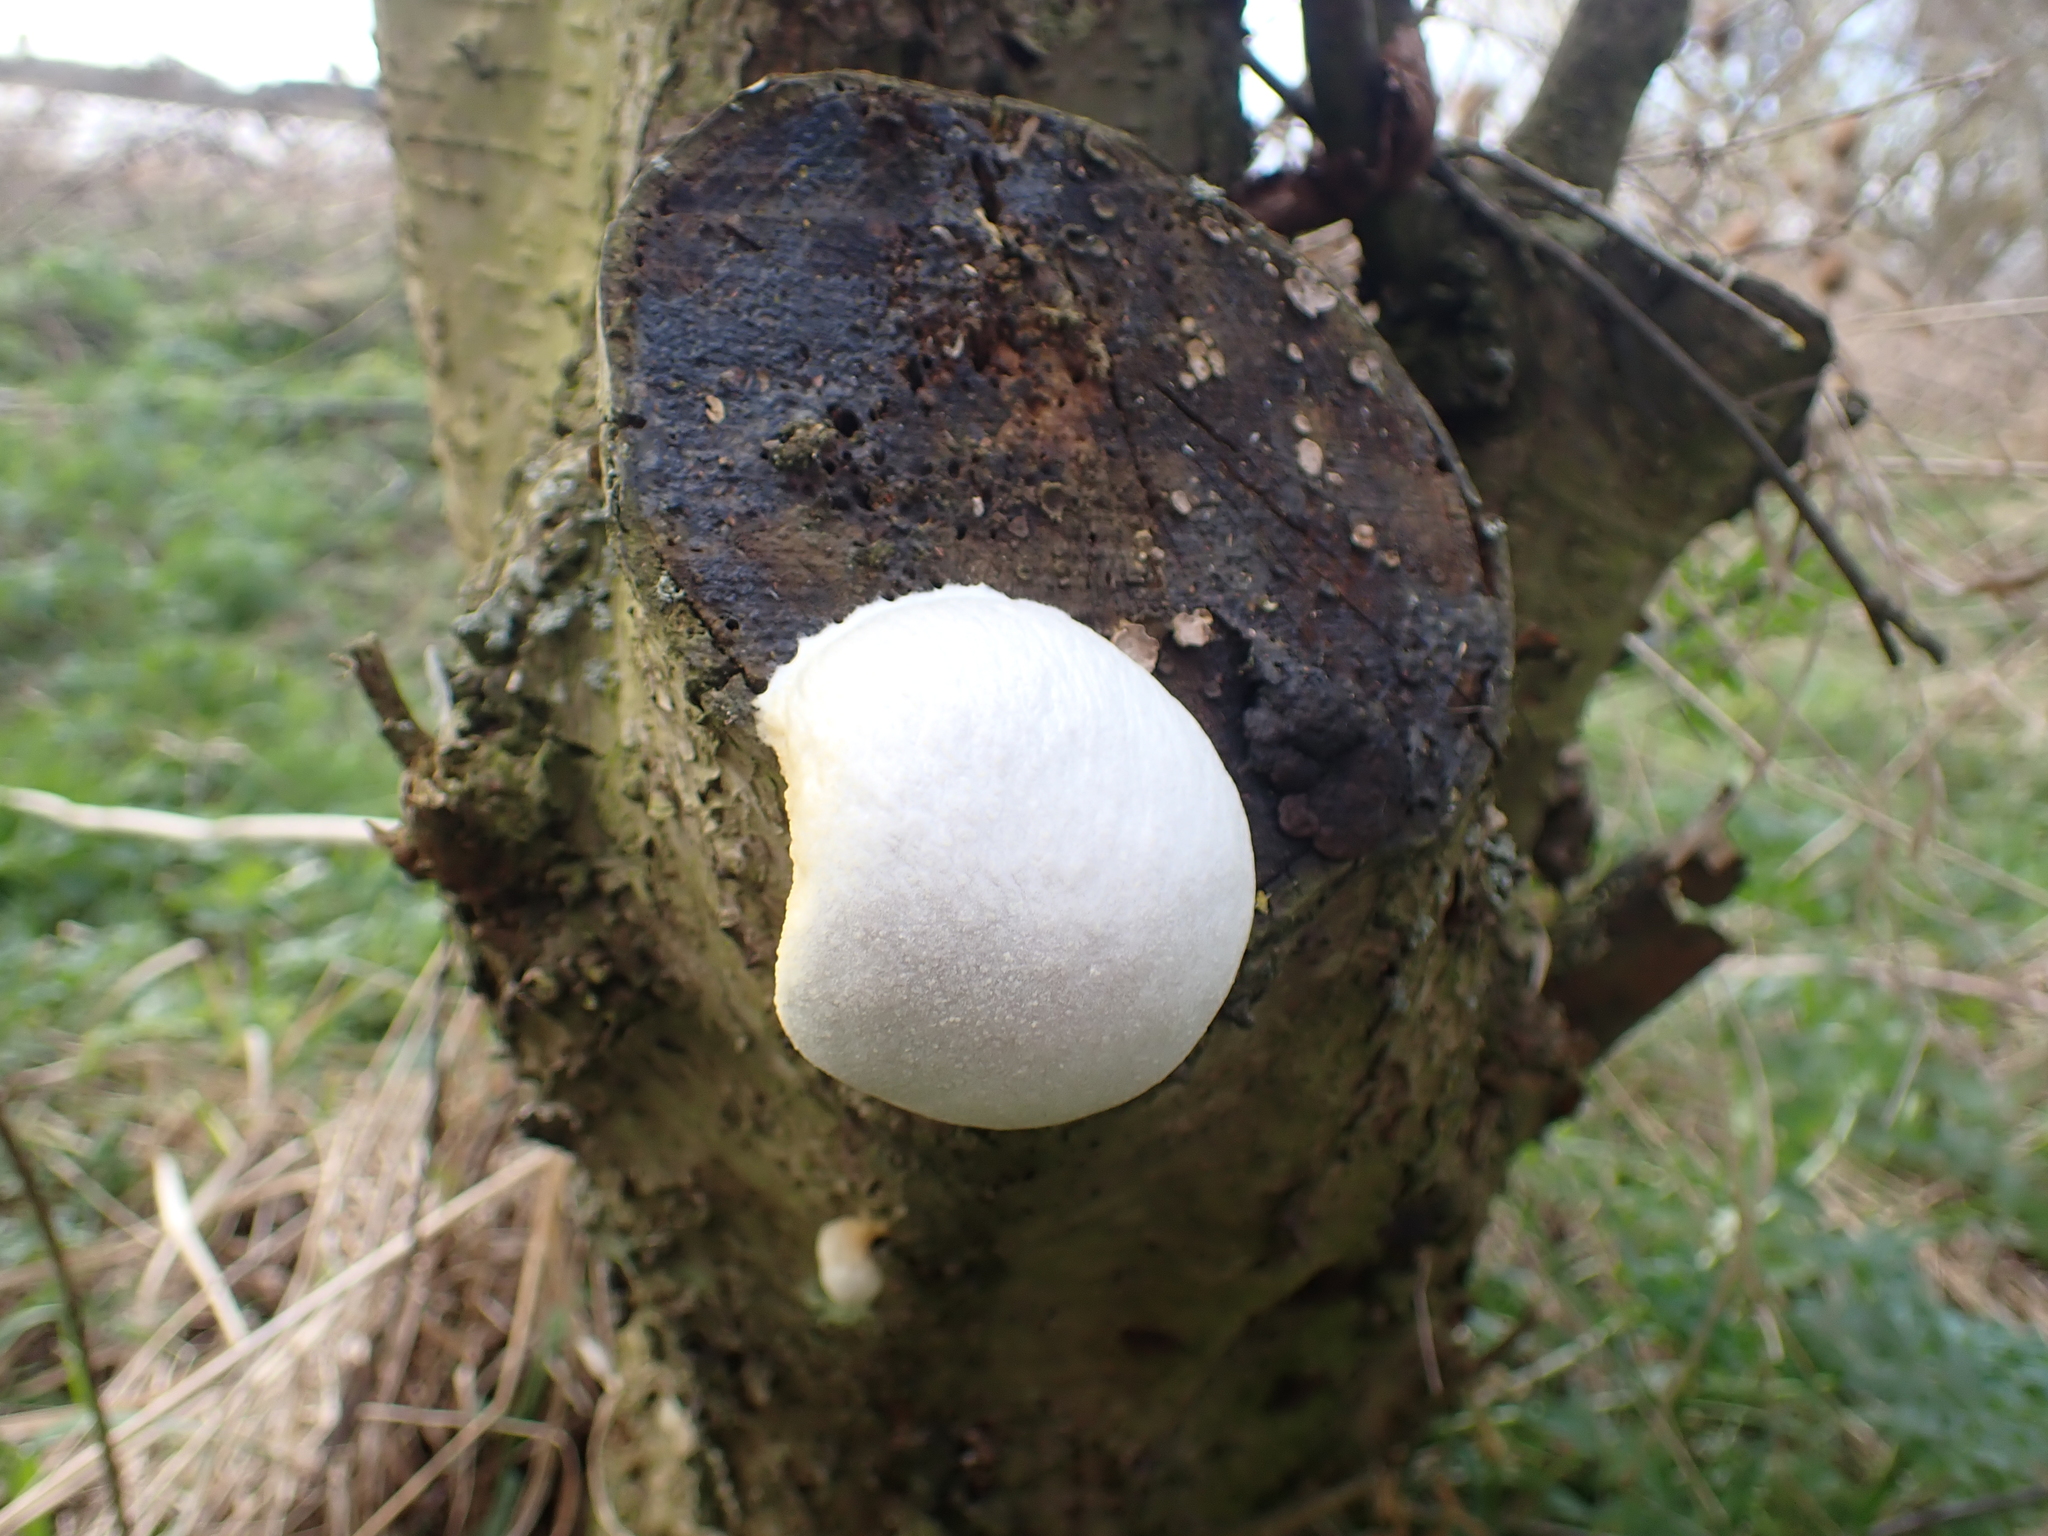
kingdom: Protozoa
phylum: Mycetozoa
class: Myxomycetes
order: Cribrariales
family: Tubiferaceae
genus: Reticularia
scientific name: Reticularia lycoperdon
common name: False puffball
